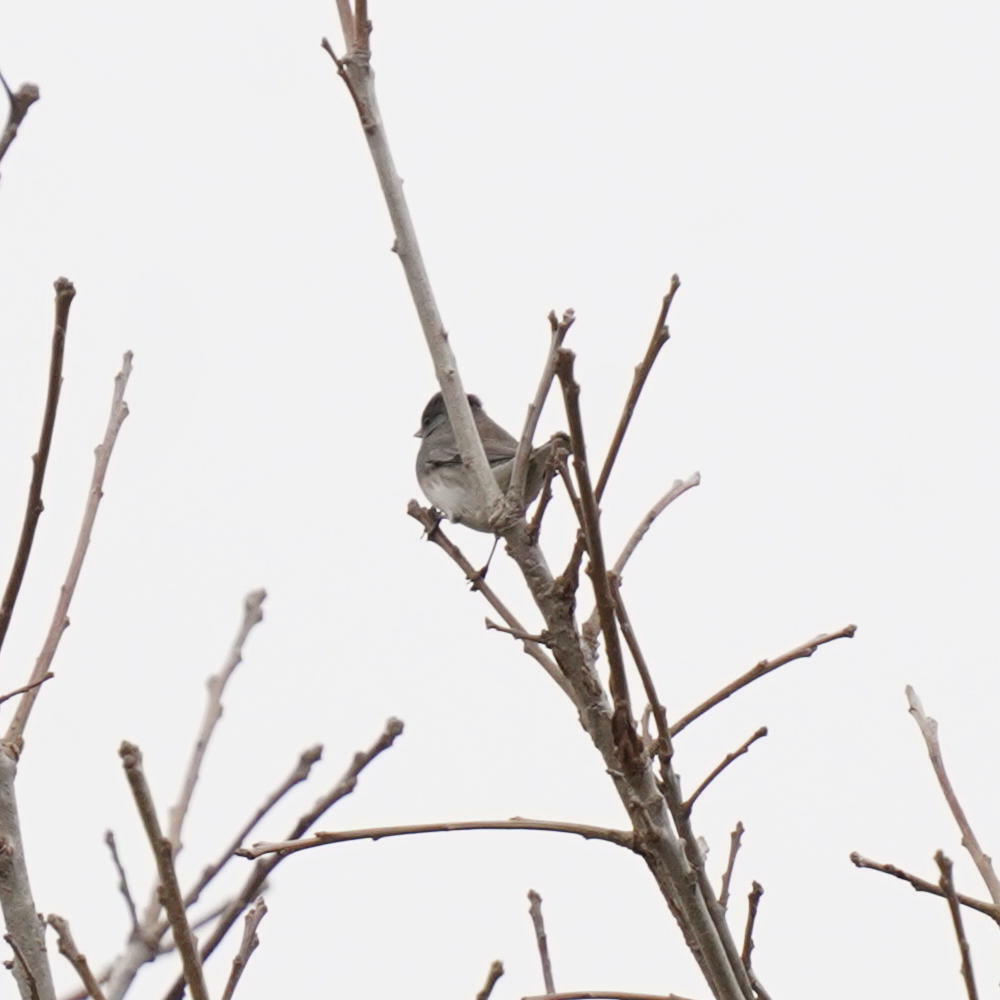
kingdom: Animalia
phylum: Chordata
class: Aves
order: Passeriformes
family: Passerellidae
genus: Junco
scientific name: Junco hyemalis
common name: Dark-eyed junco
